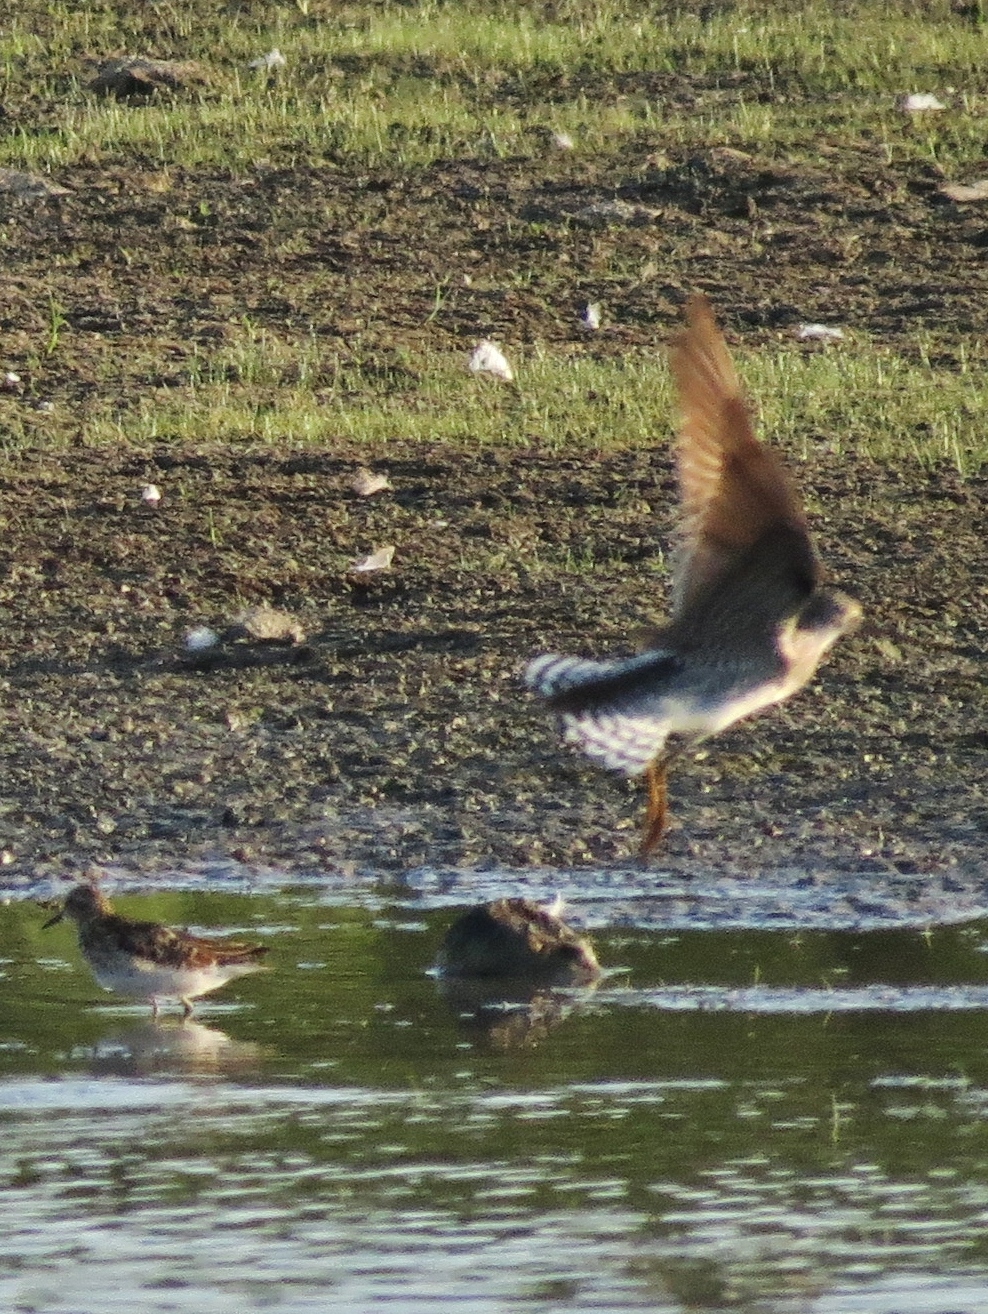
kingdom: Animalia
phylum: Chordata
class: Aves
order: Charadriiformes
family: Scolopacidae
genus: Tringa
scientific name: Tringa solitaria
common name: Solitary sandpiper
